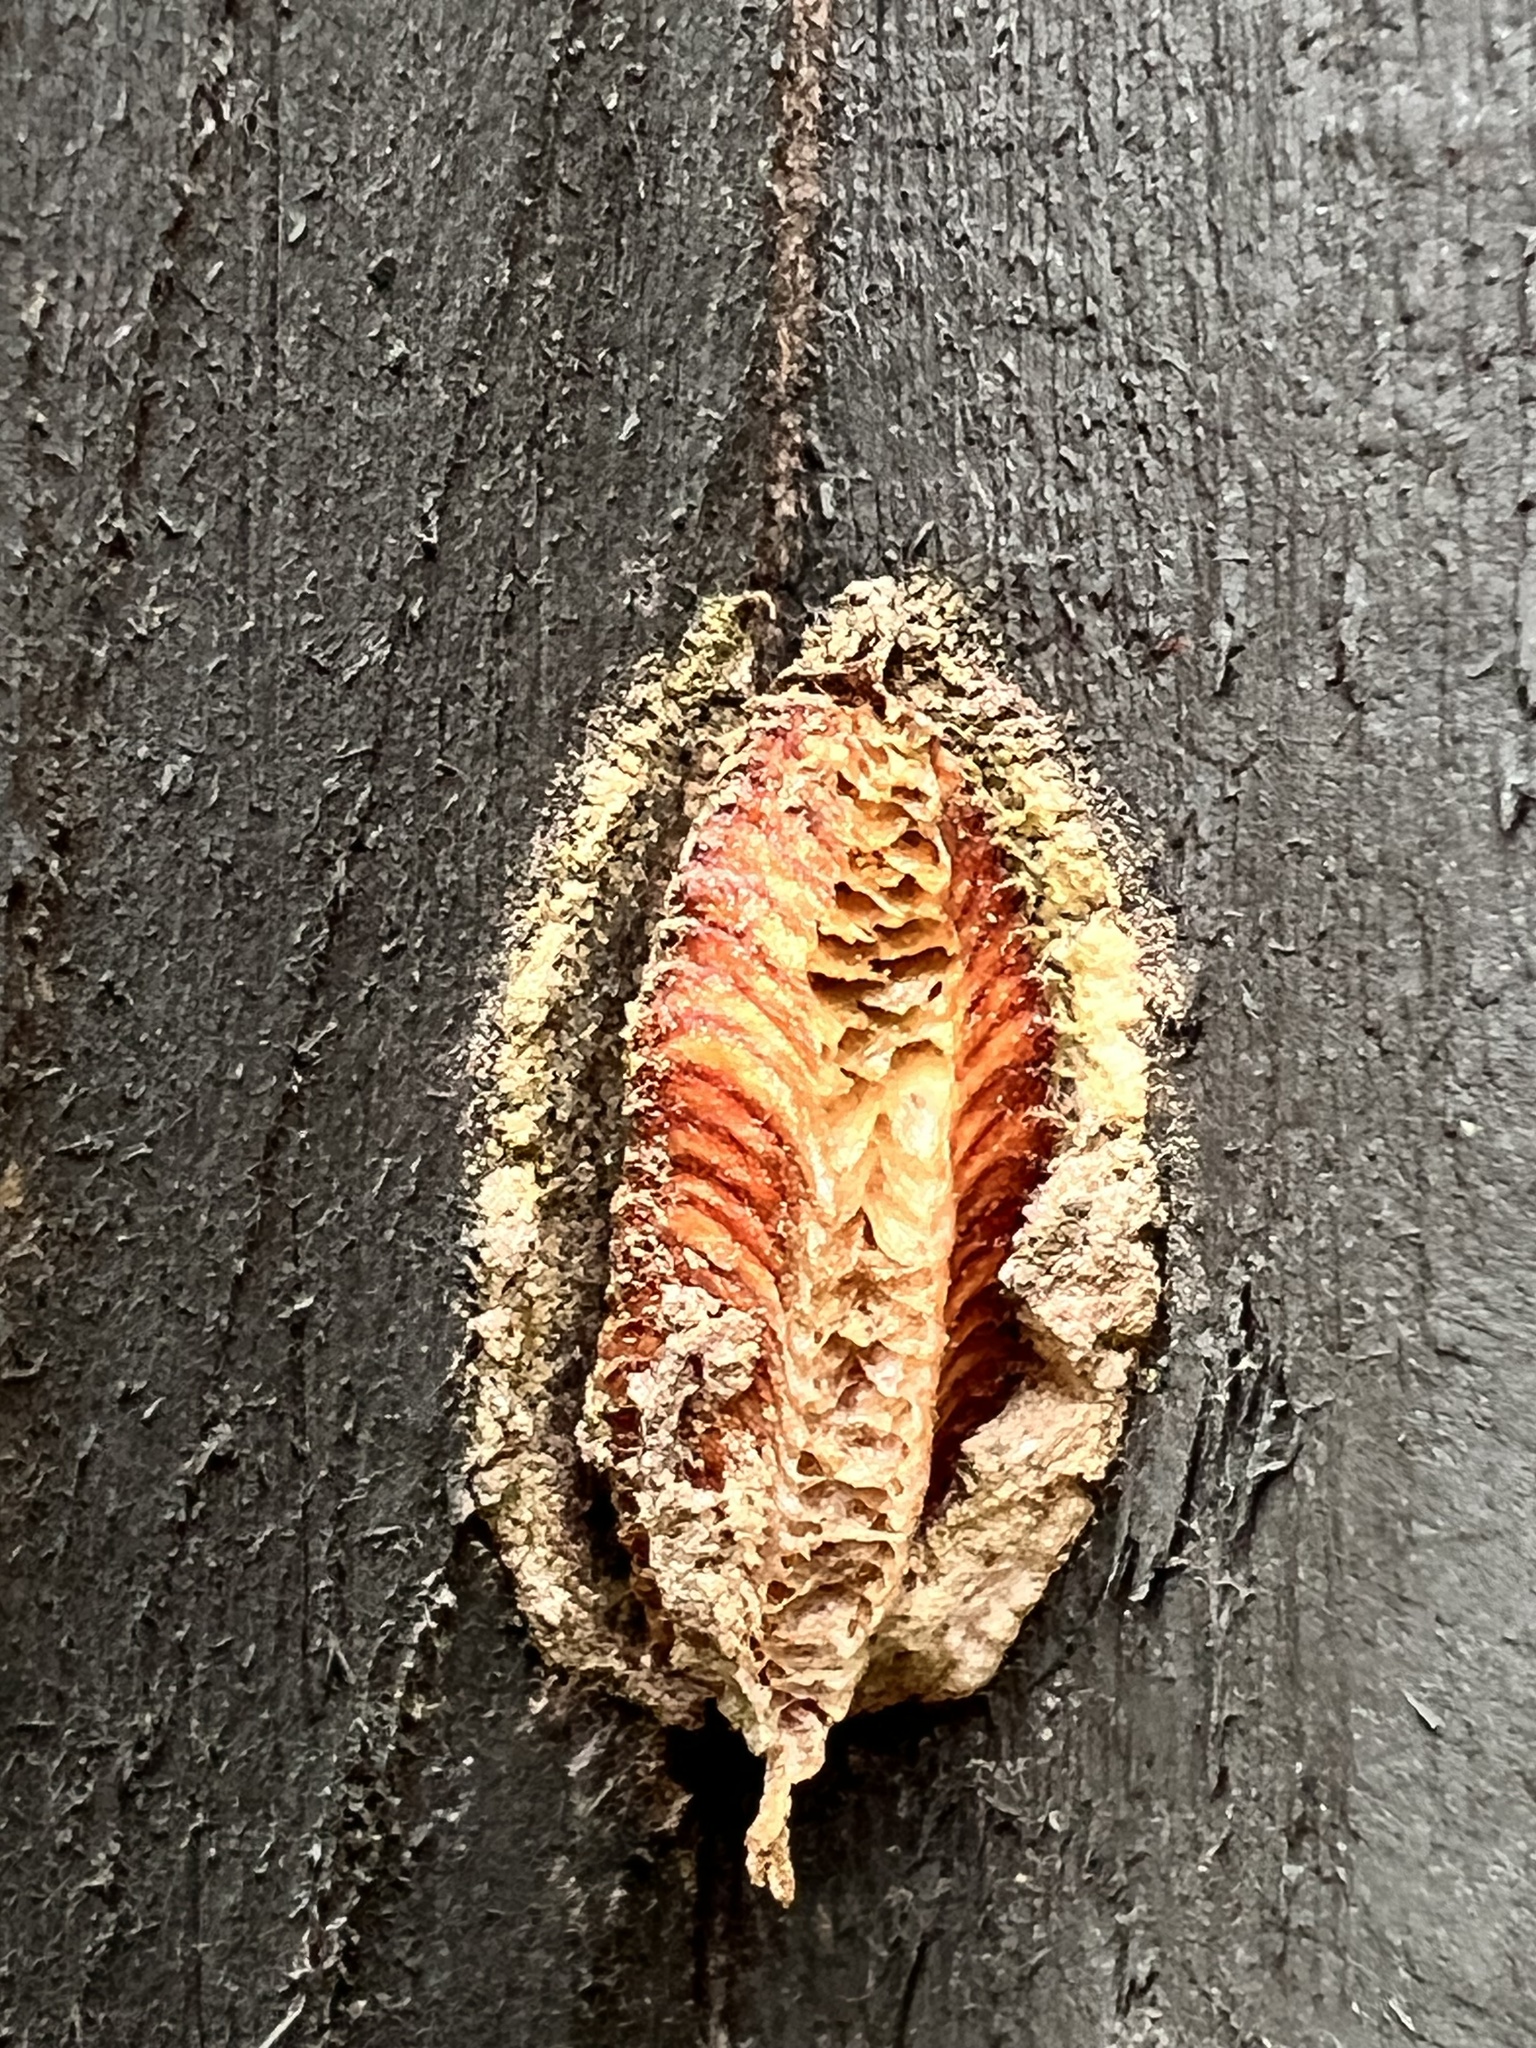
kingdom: Animalia
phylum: Arthropoda
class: Insecta
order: Mantodea
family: Miomantidae
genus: Miomantis
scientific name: Miomantis caffra
